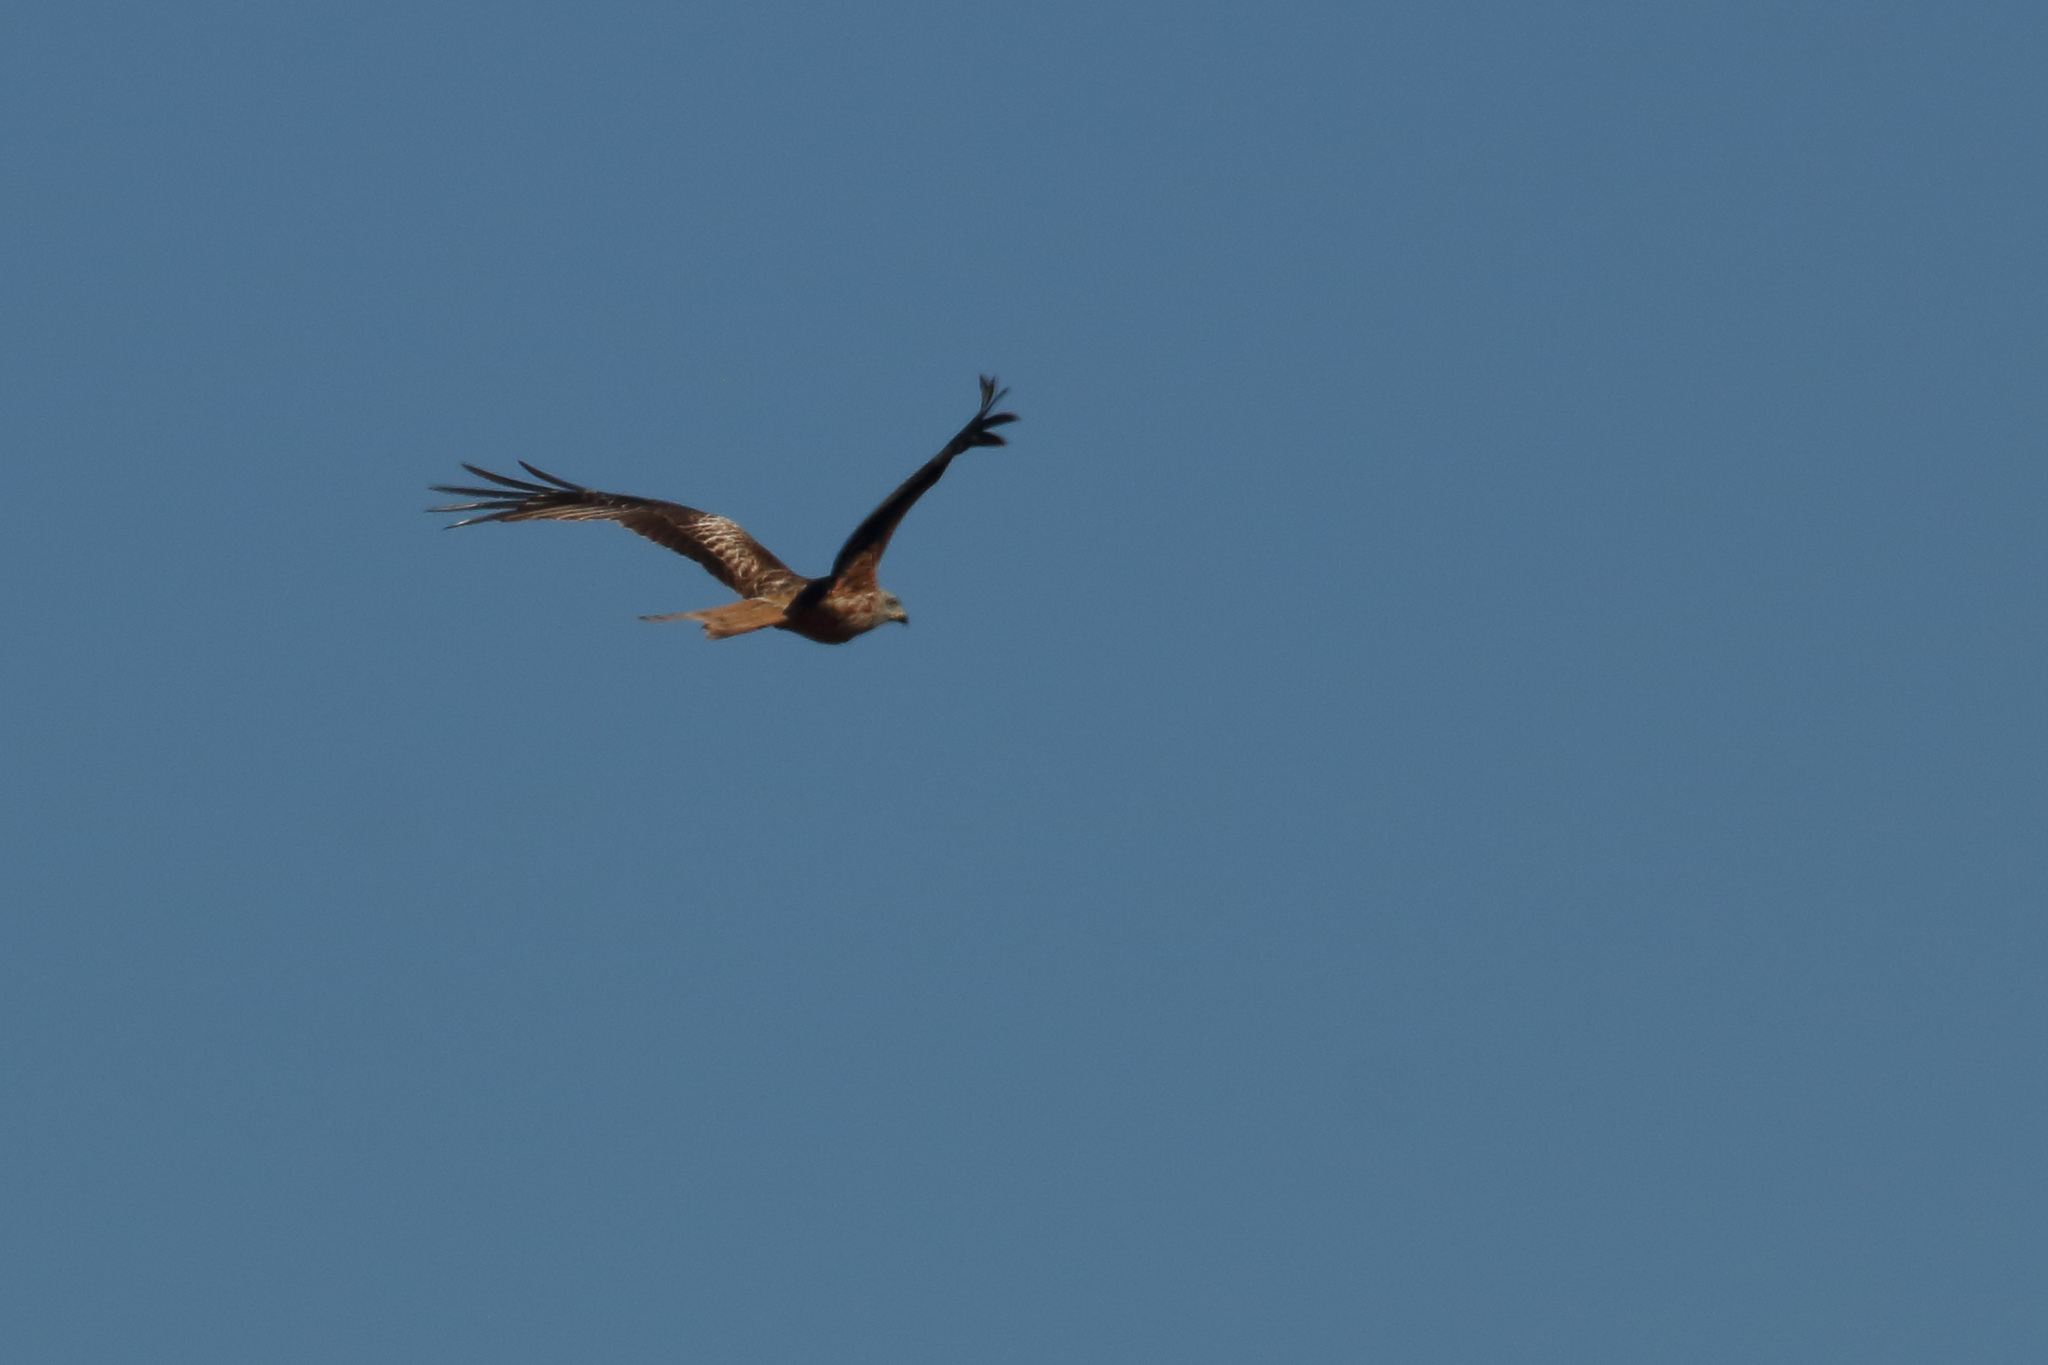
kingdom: Animalia
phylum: Chordata
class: Aves
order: Accipitriformes
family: Accipitridae
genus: Milvus
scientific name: Milvus milvus
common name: Red kite
